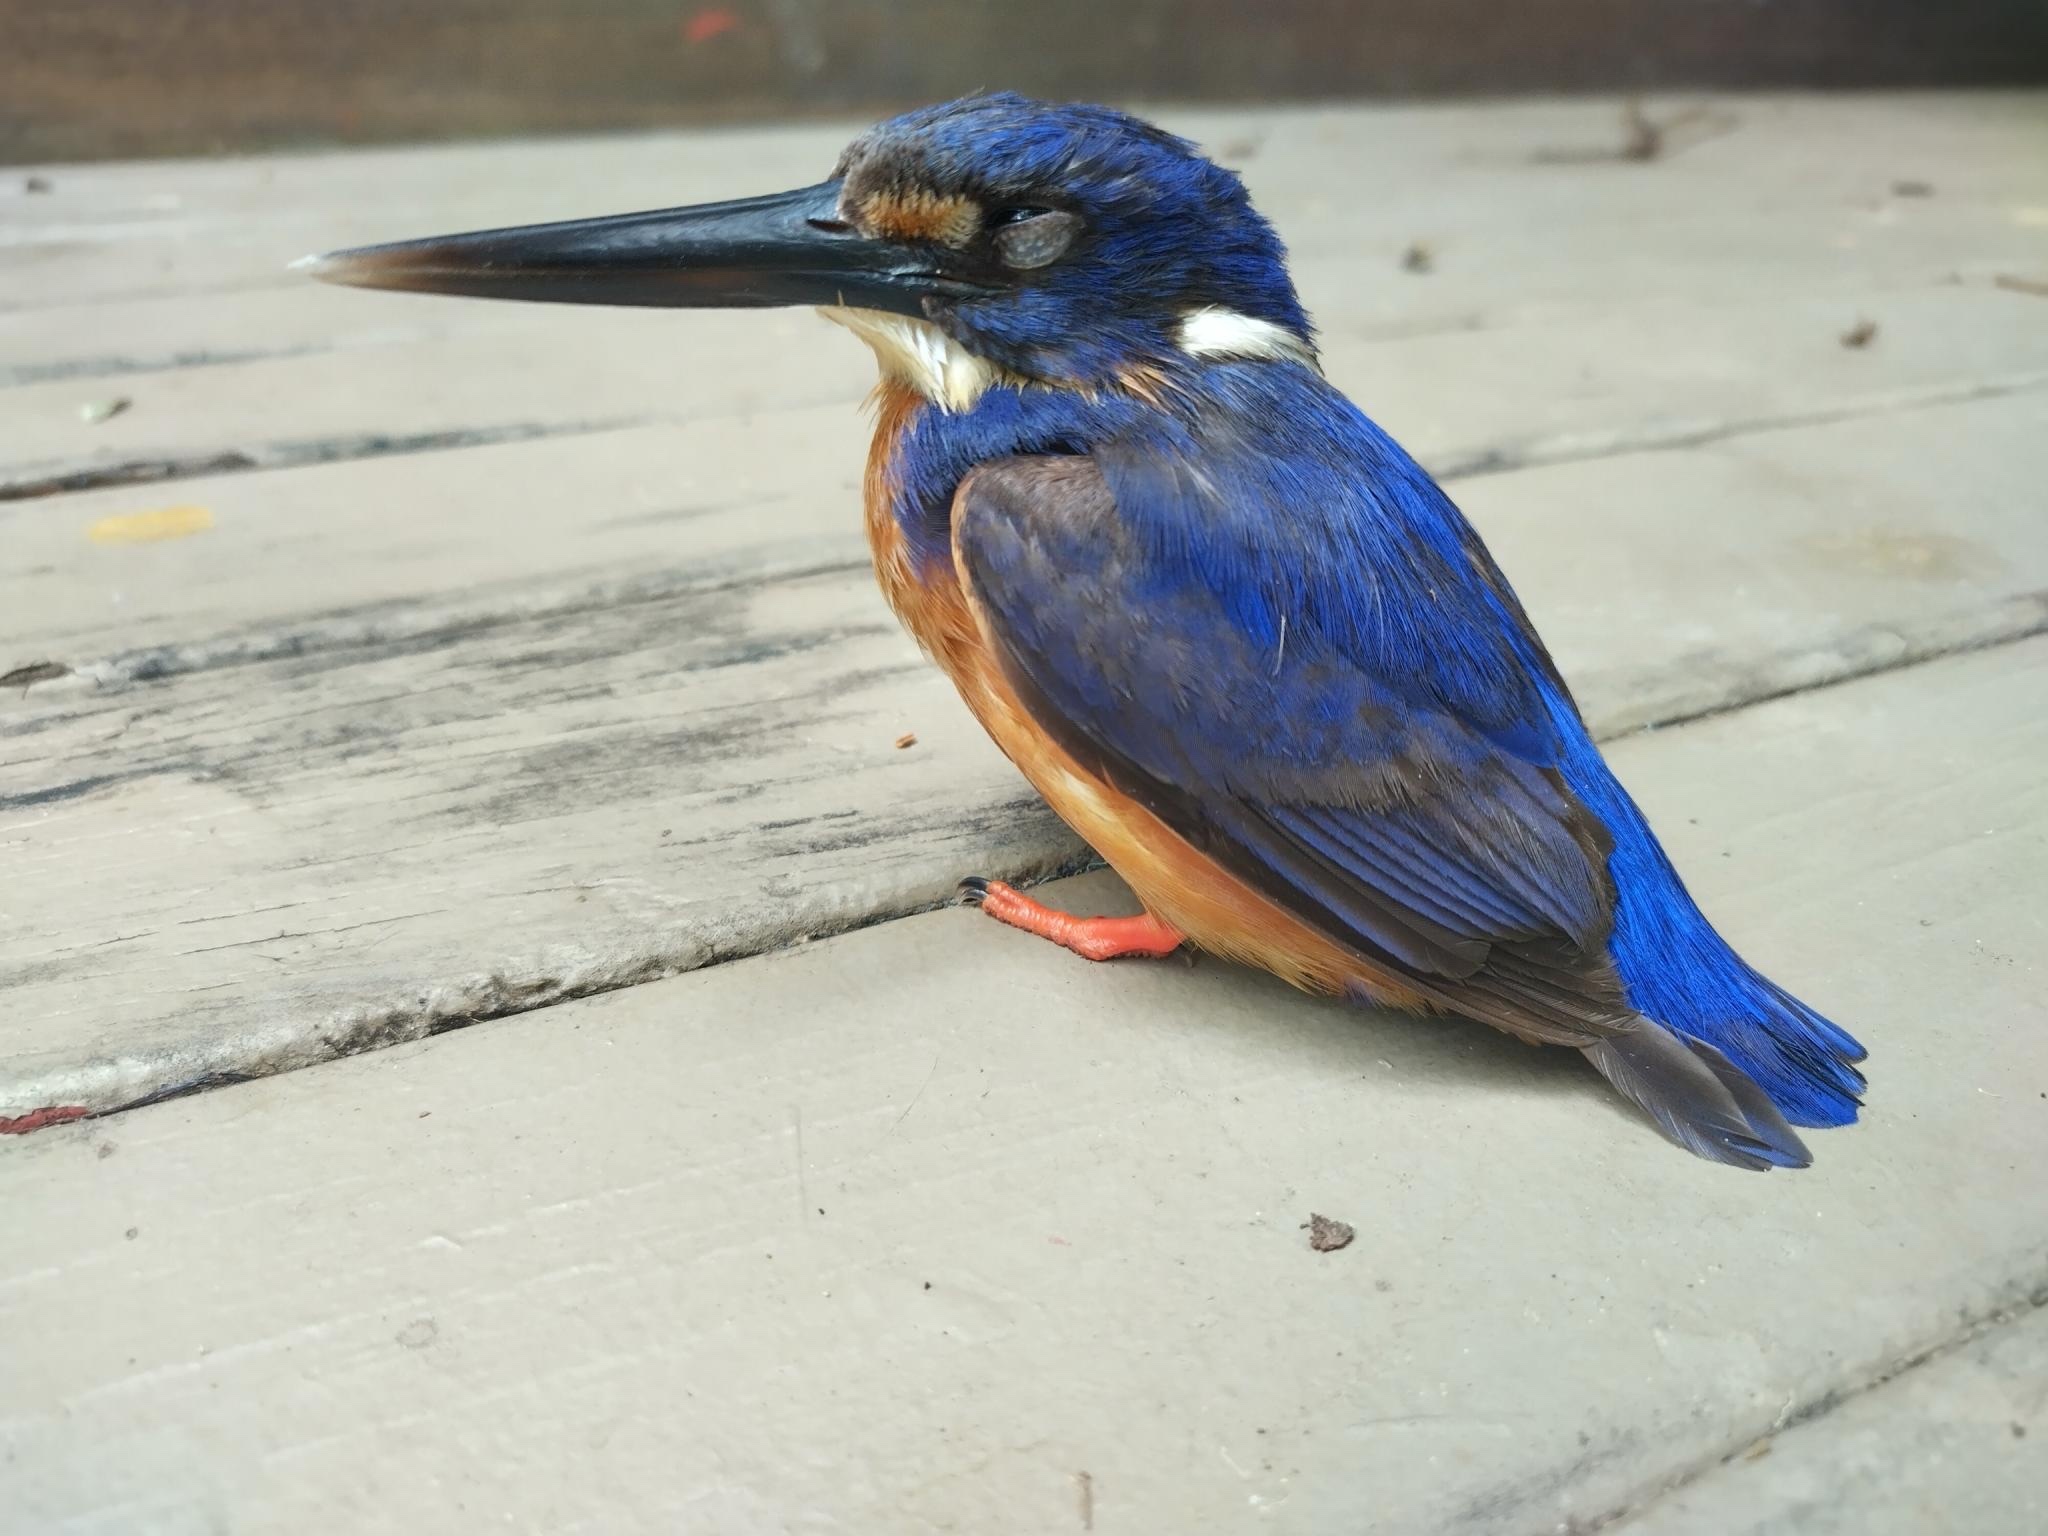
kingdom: Animalia
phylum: Chordata
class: Aves
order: Coraciiformes
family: Alcedinidae
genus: Ceyx
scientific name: Ceyx azureus
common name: Azure kingfisher
